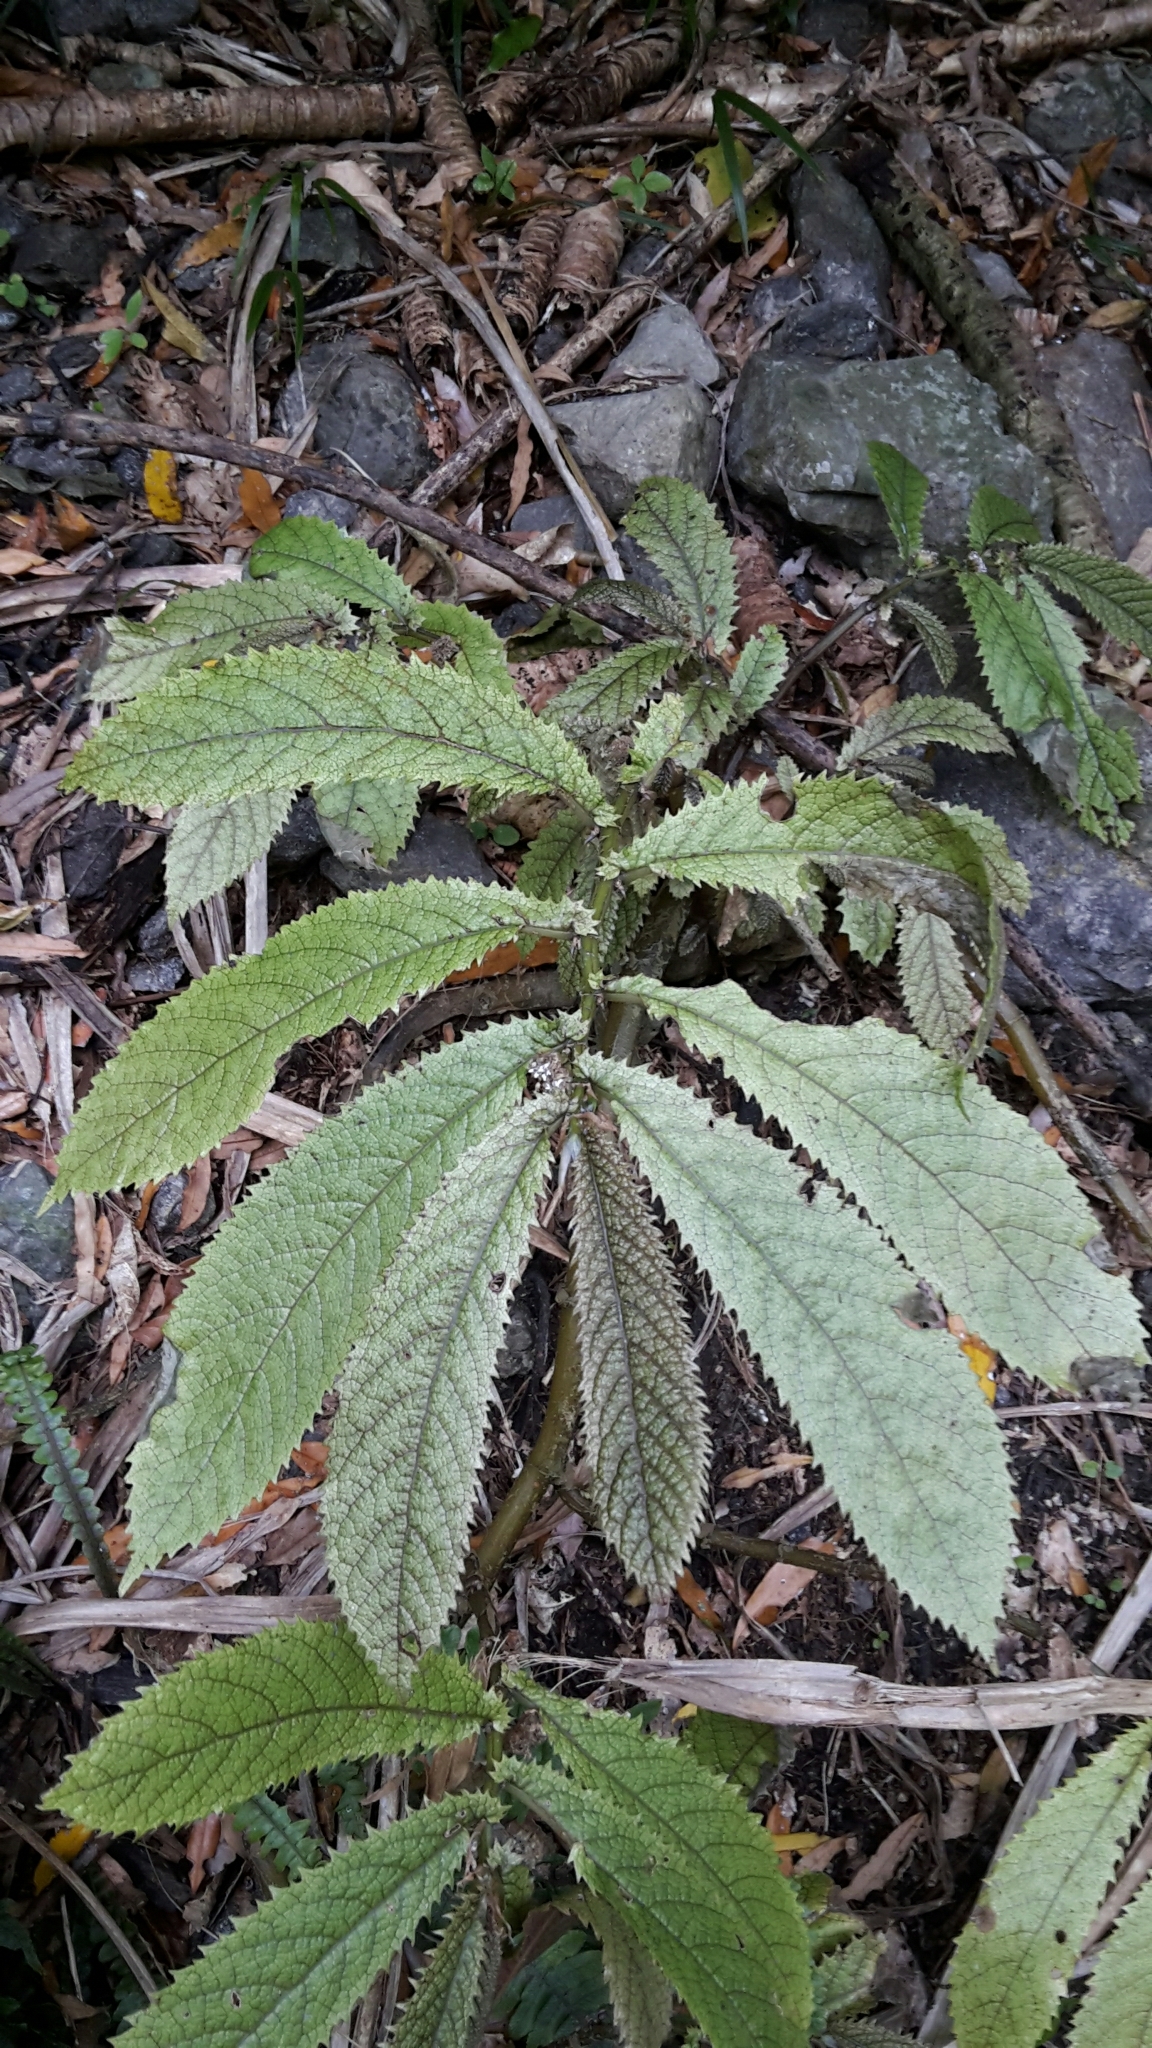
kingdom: Plantae
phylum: Tracheophyta
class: Magnoliopsida
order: Rosales
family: Urticaceae
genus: Elatostema
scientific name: Elatostema rugosum
